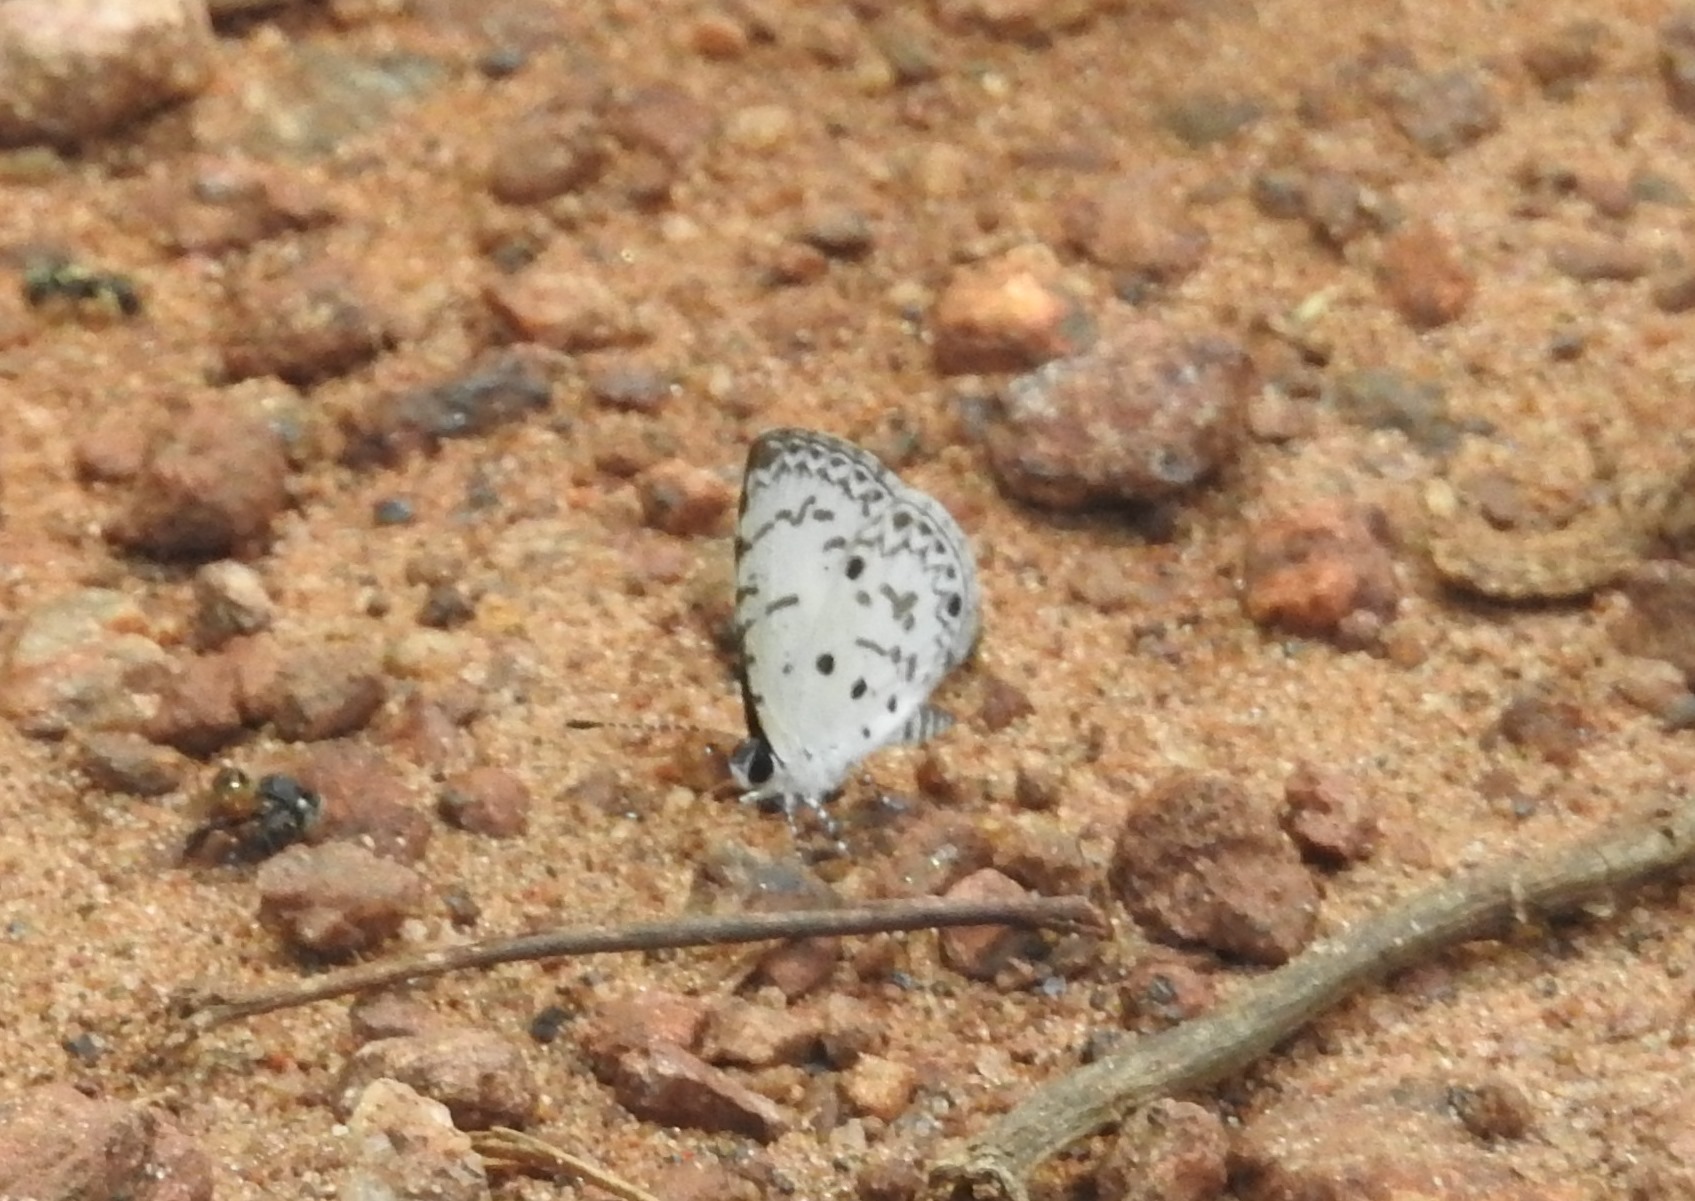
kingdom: Animalia
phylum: Arthropoda
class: Insecta
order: Lepidoptera
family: Lycaenidae
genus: Megisba
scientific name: Megisba malaya
